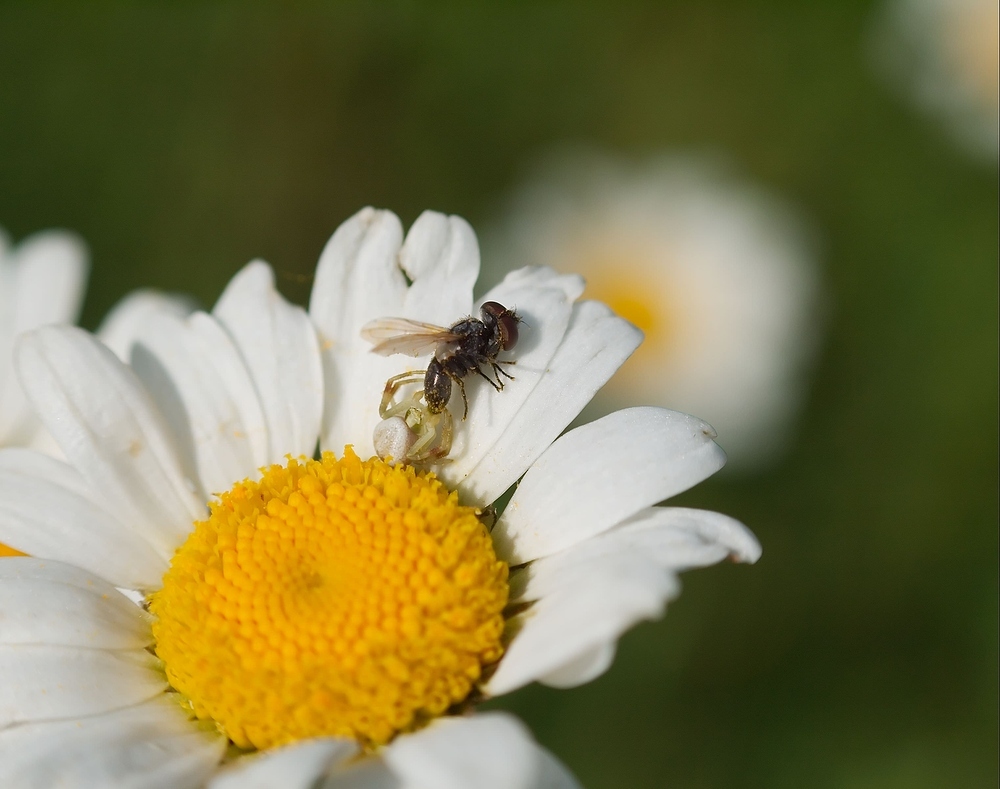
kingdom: Animalia
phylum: Arthropoda
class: Arachnida
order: Araneae
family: Thomisidae
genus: Misumena
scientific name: Misumena vatia
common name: Goldenrod crab spider
